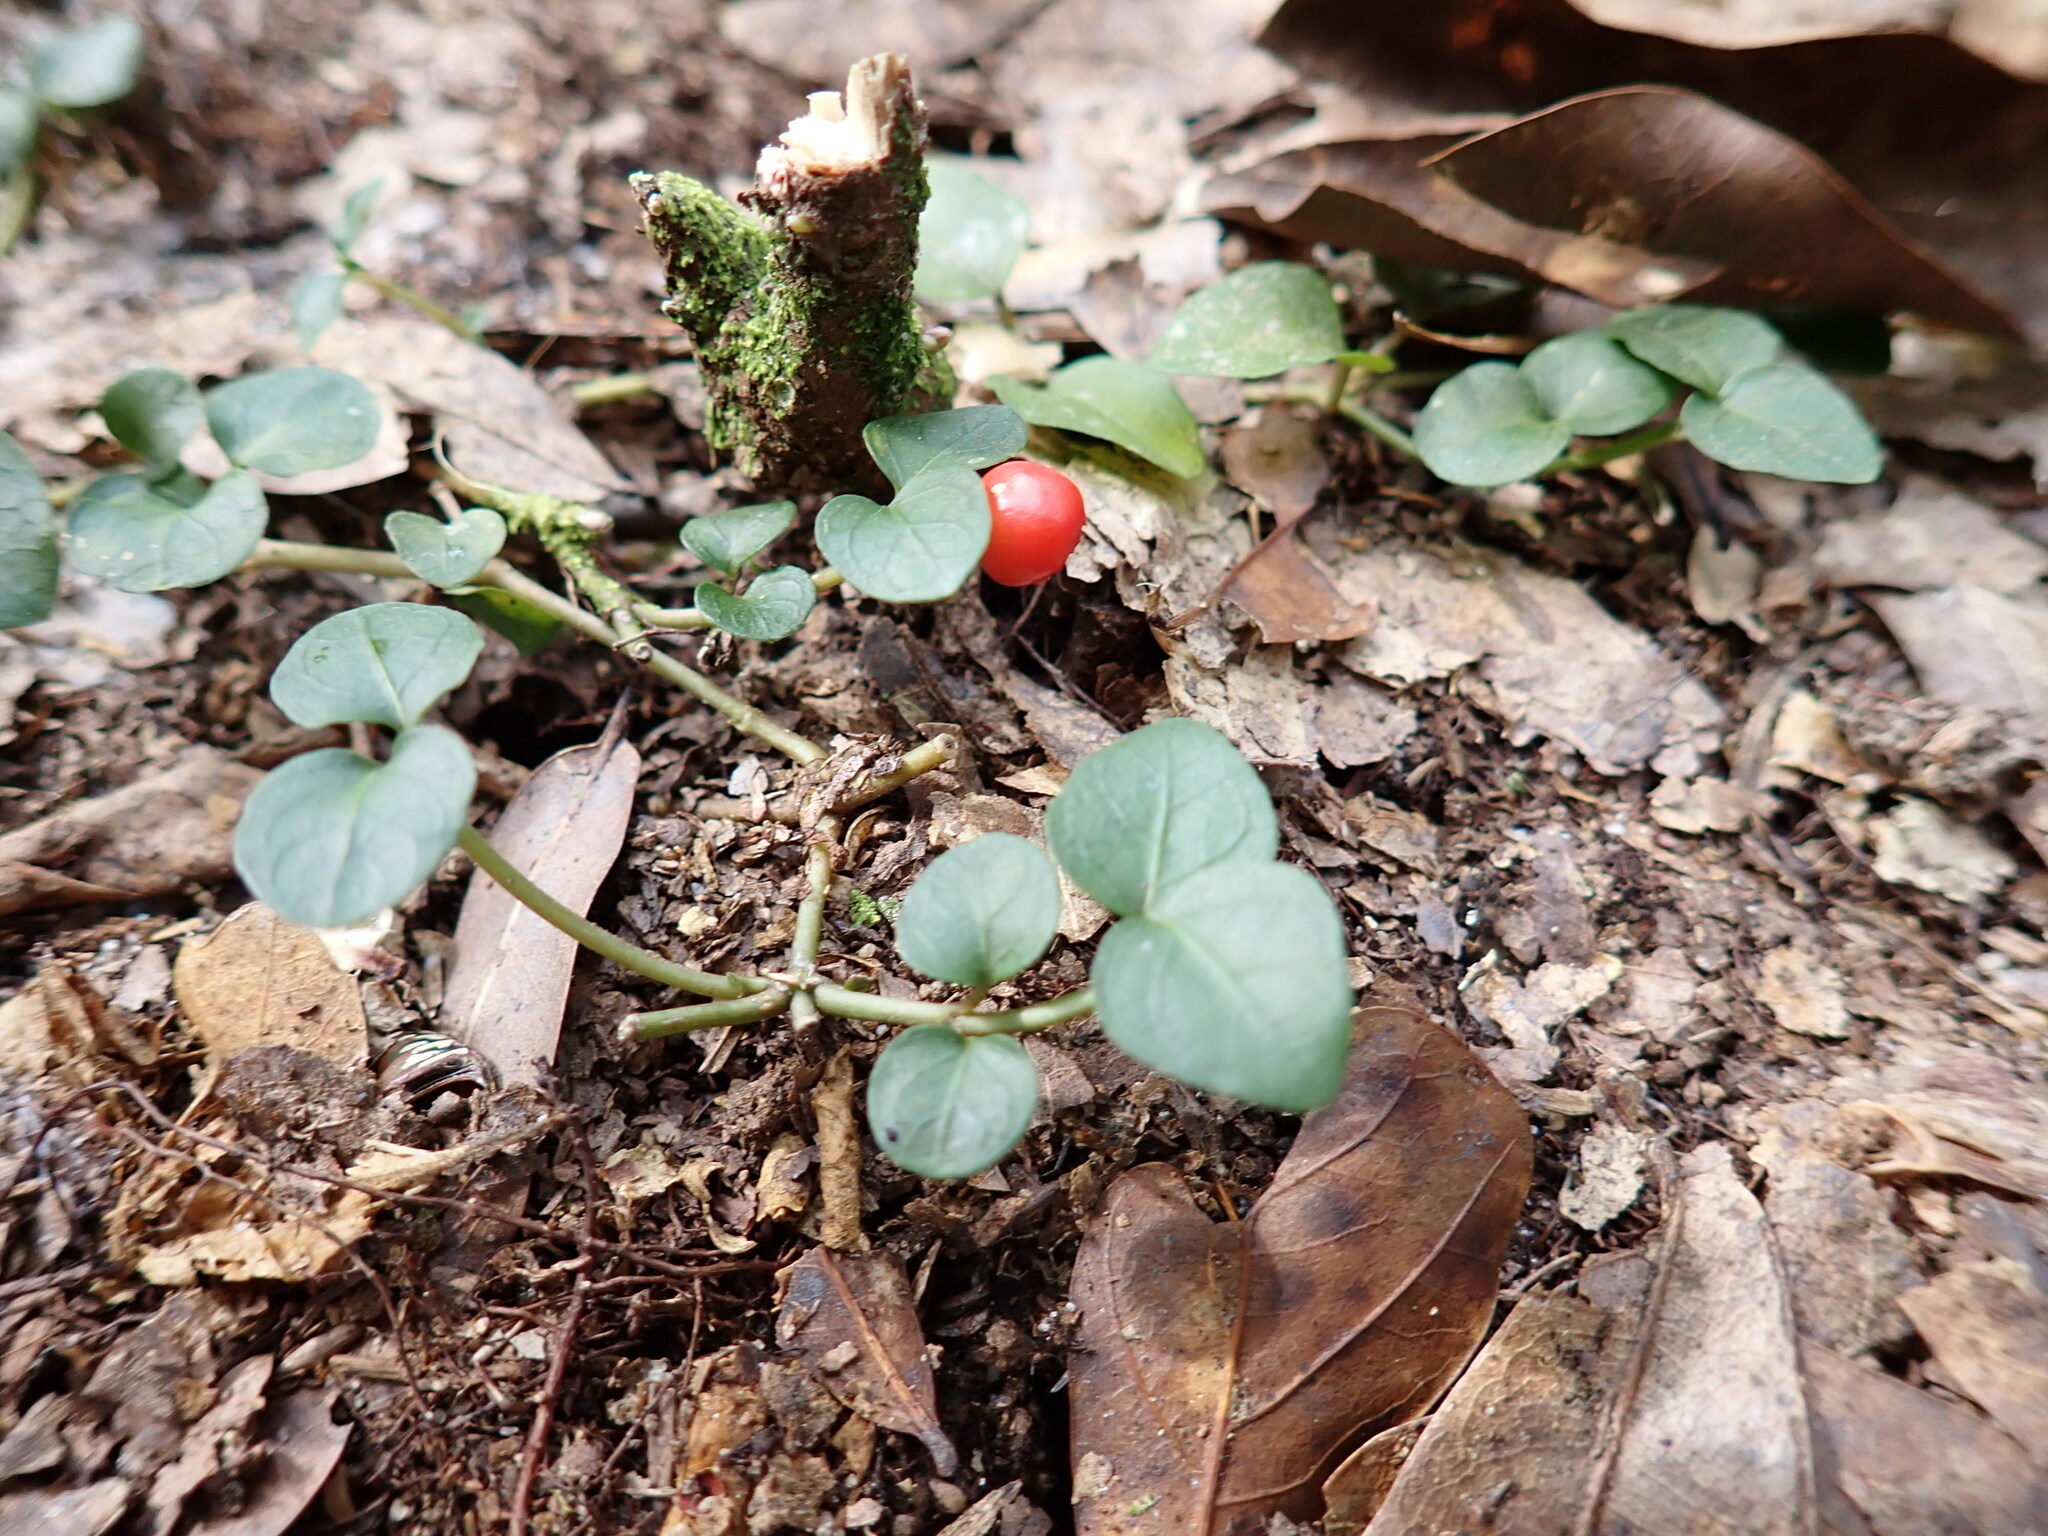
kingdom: Plantae
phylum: Tracheophyta
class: Magnoliopsida
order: Gentianales
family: Rubiaceae
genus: Mitchella
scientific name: Mitchella repens
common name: Partridge-berry
